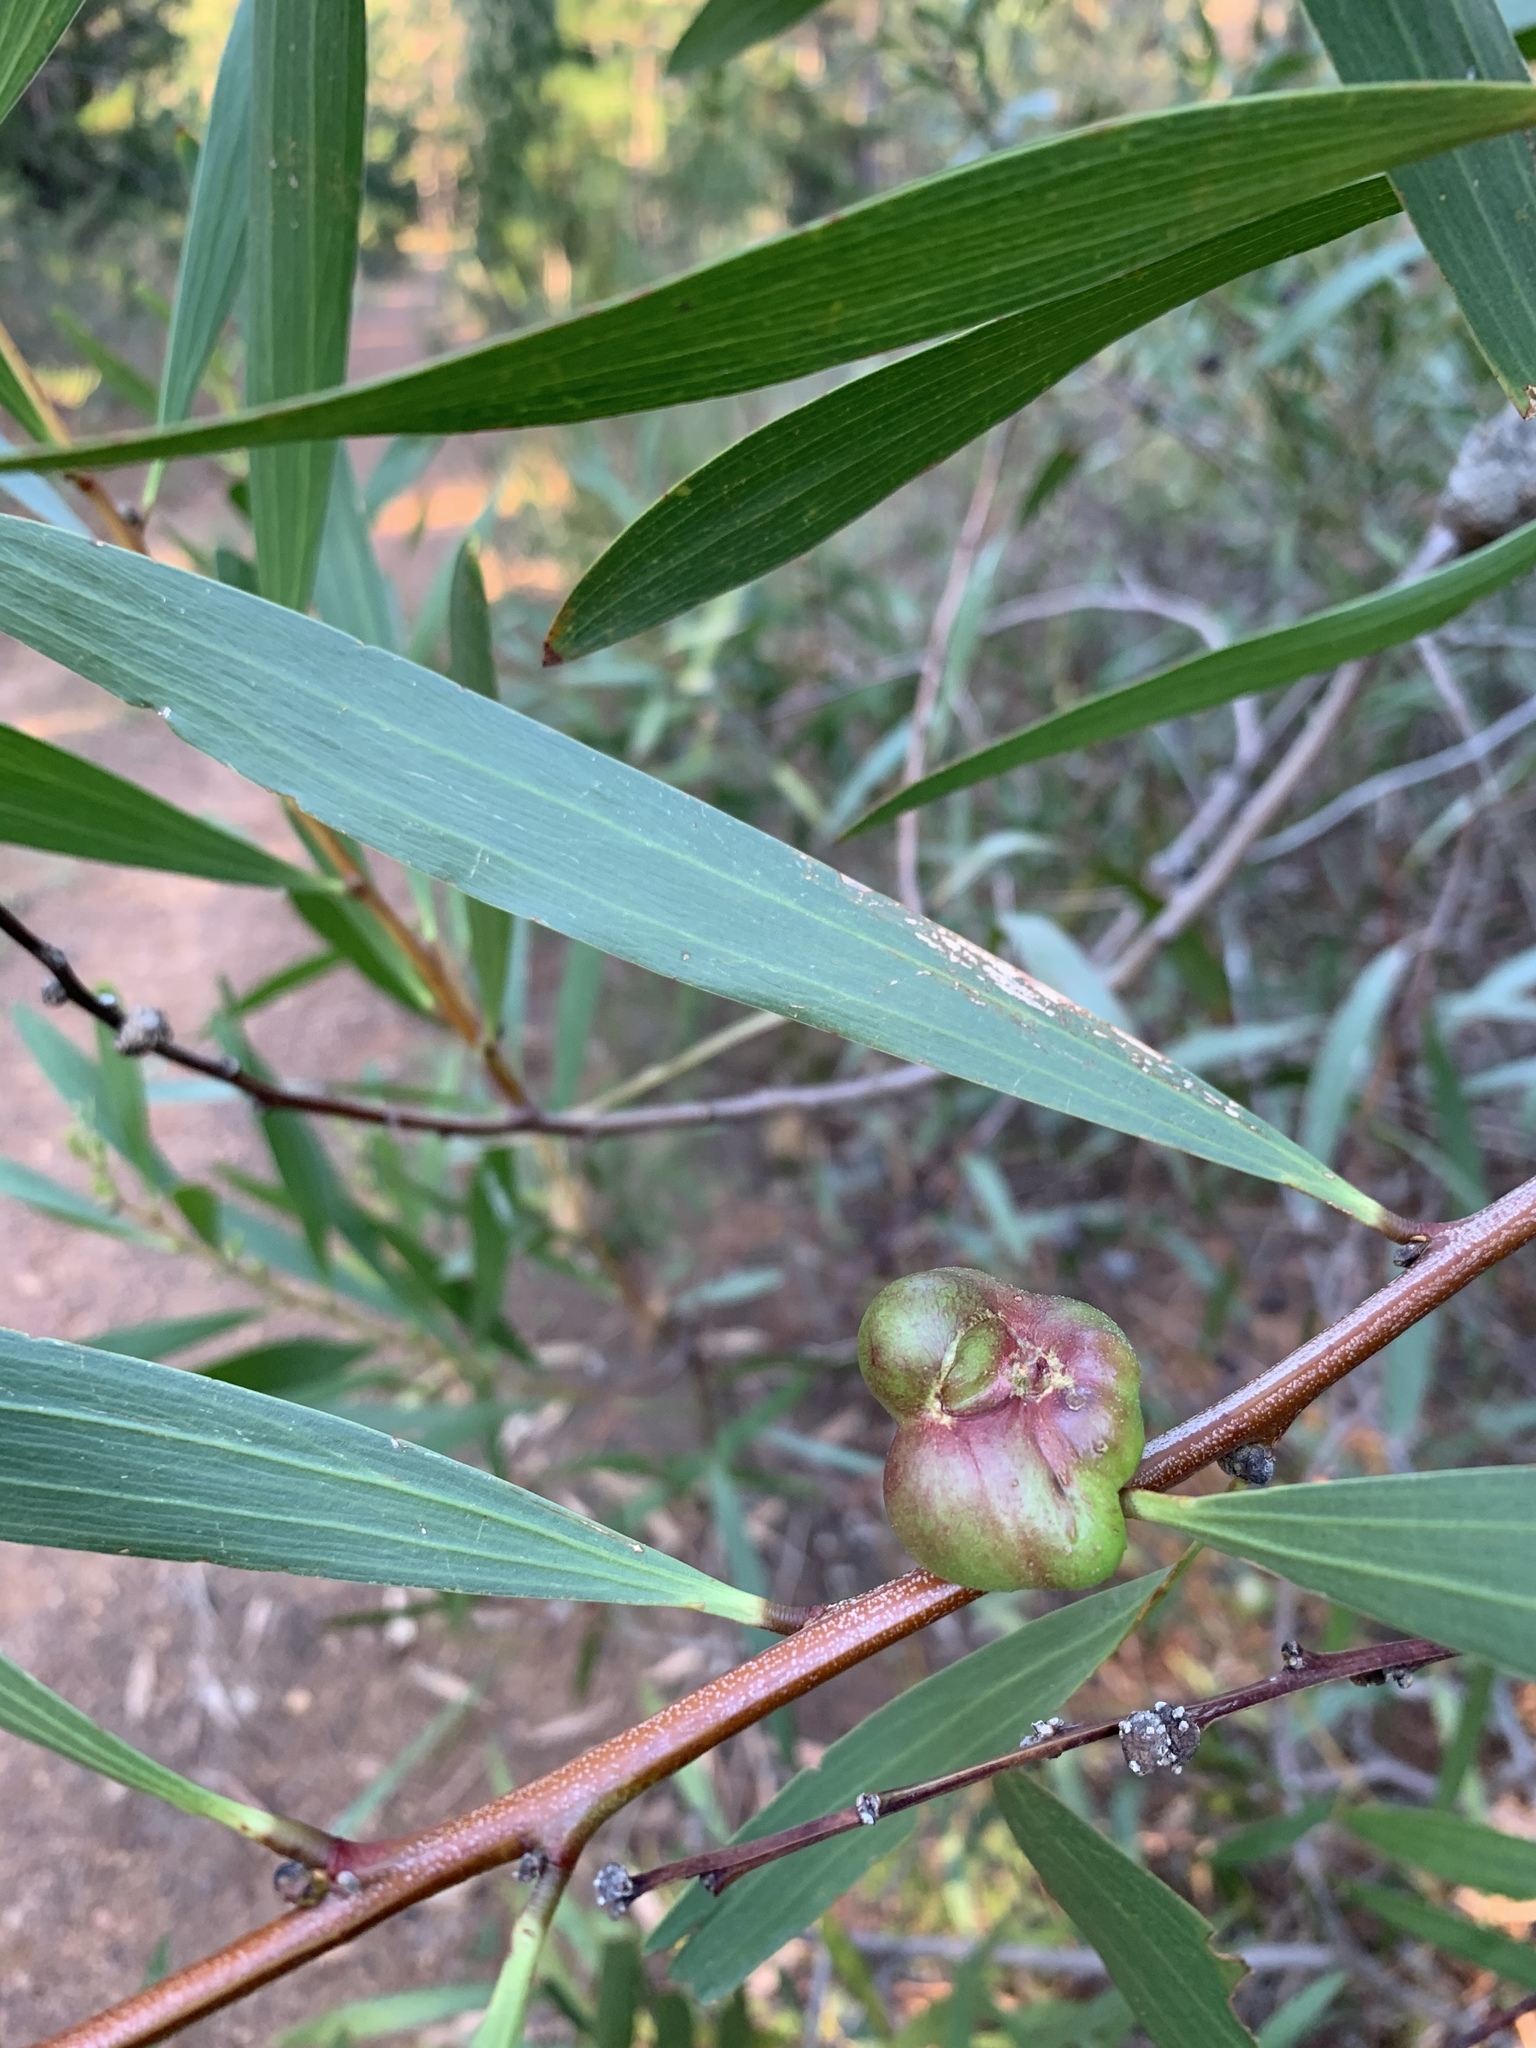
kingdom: Animalia
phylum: Arthropoda
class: Insecta
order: Hymenoptera
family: Pteromalidae
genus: Trichilogaster
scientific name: Trichilogaster acaciaelongifoliae
